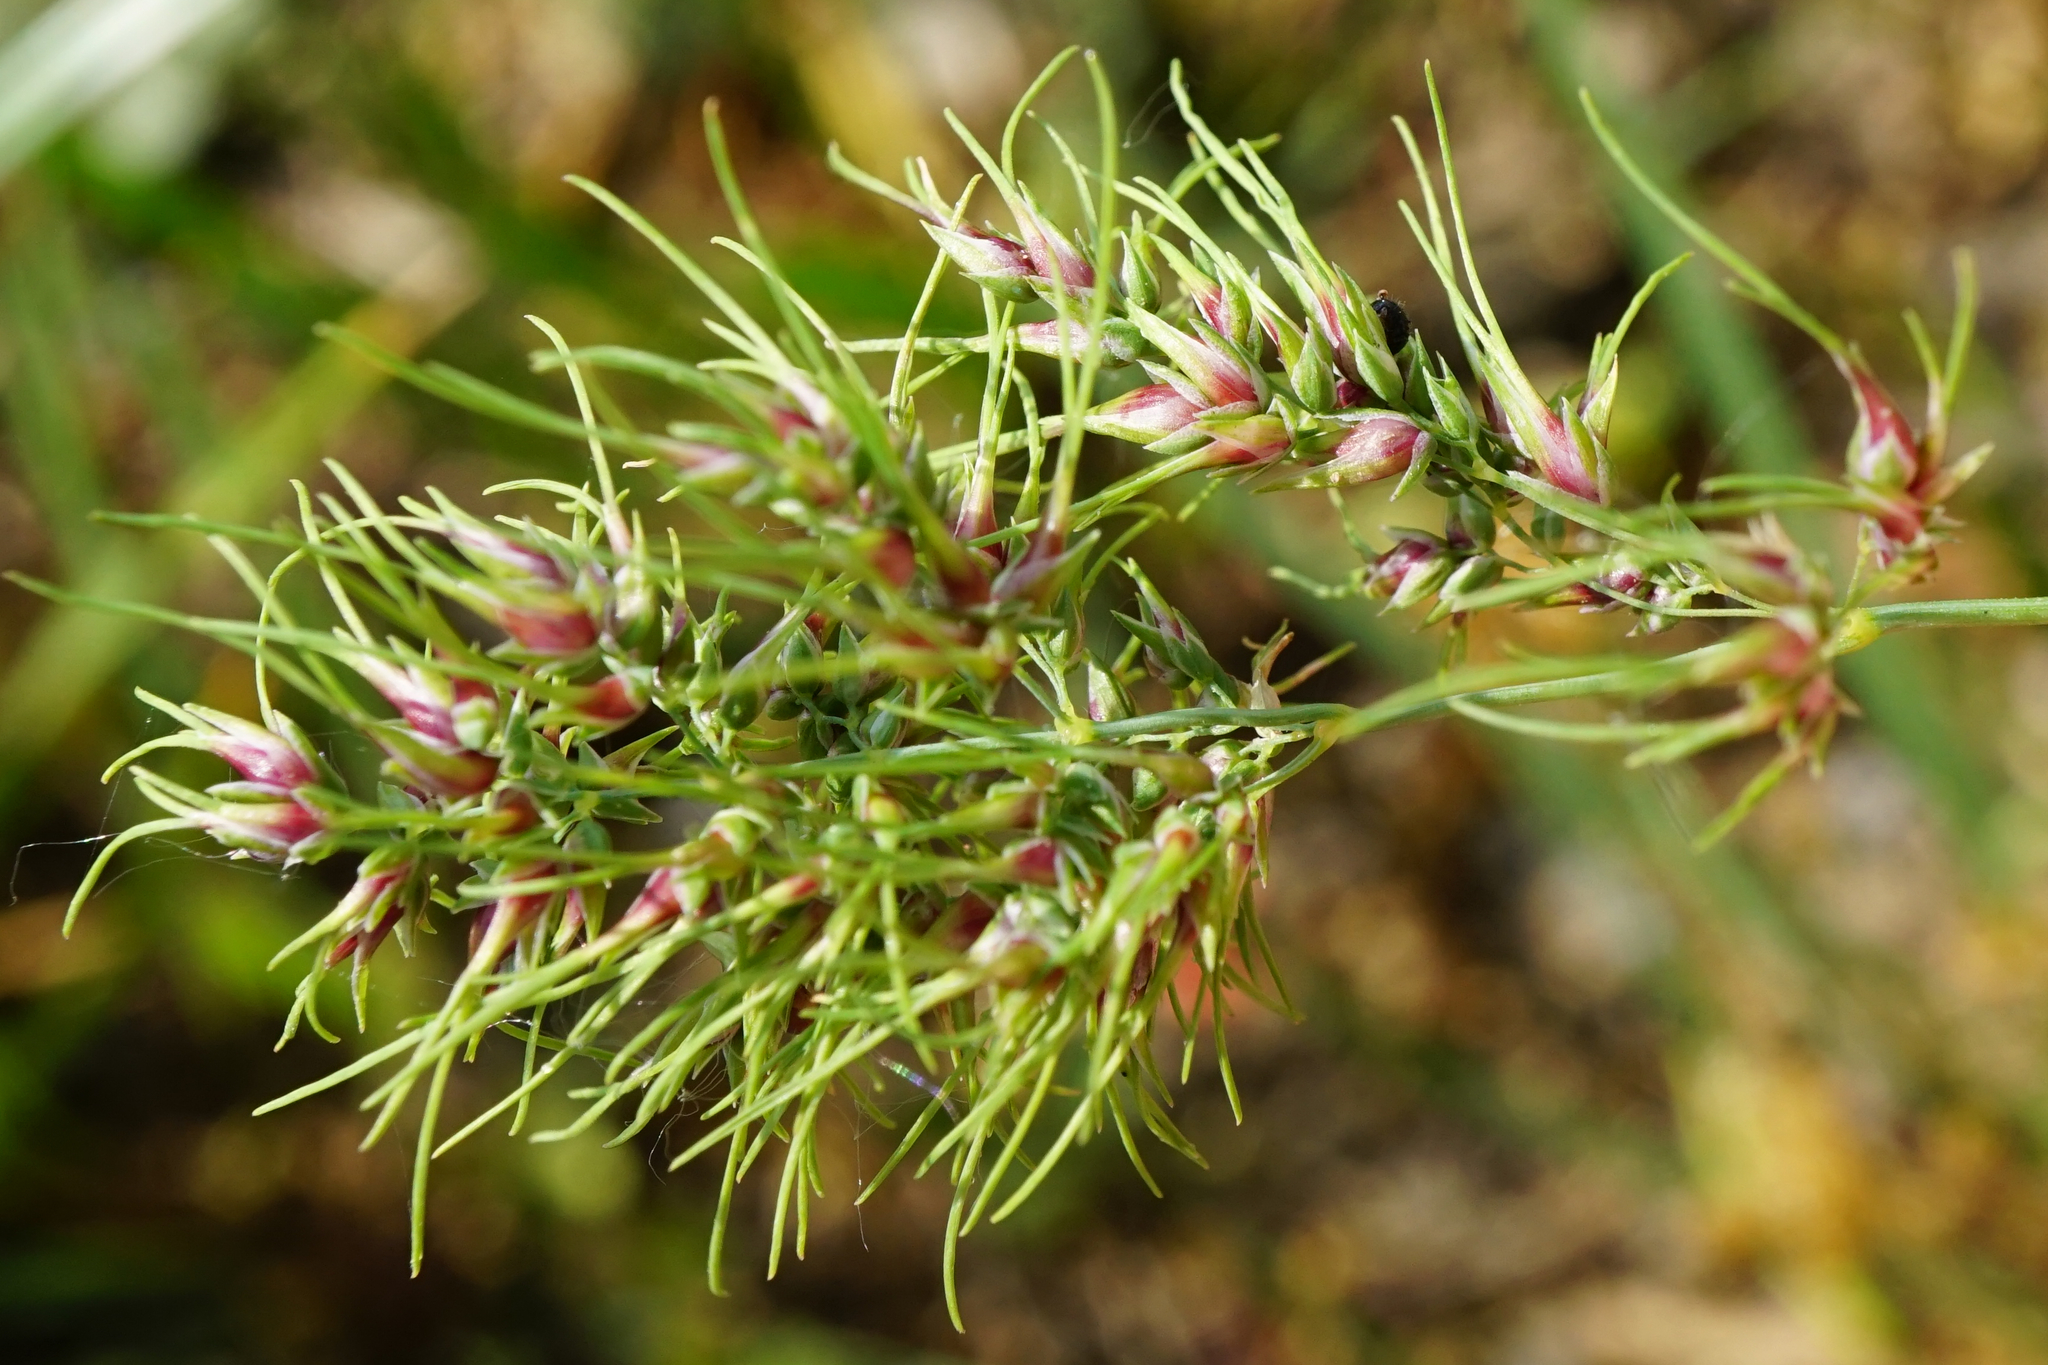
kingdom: Plantae
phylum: Tracheophyta
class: Liliopsida
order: Poales
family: Poaceae
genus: Poa
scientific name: Poa bulbosa
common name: Bulbous bluegrass
